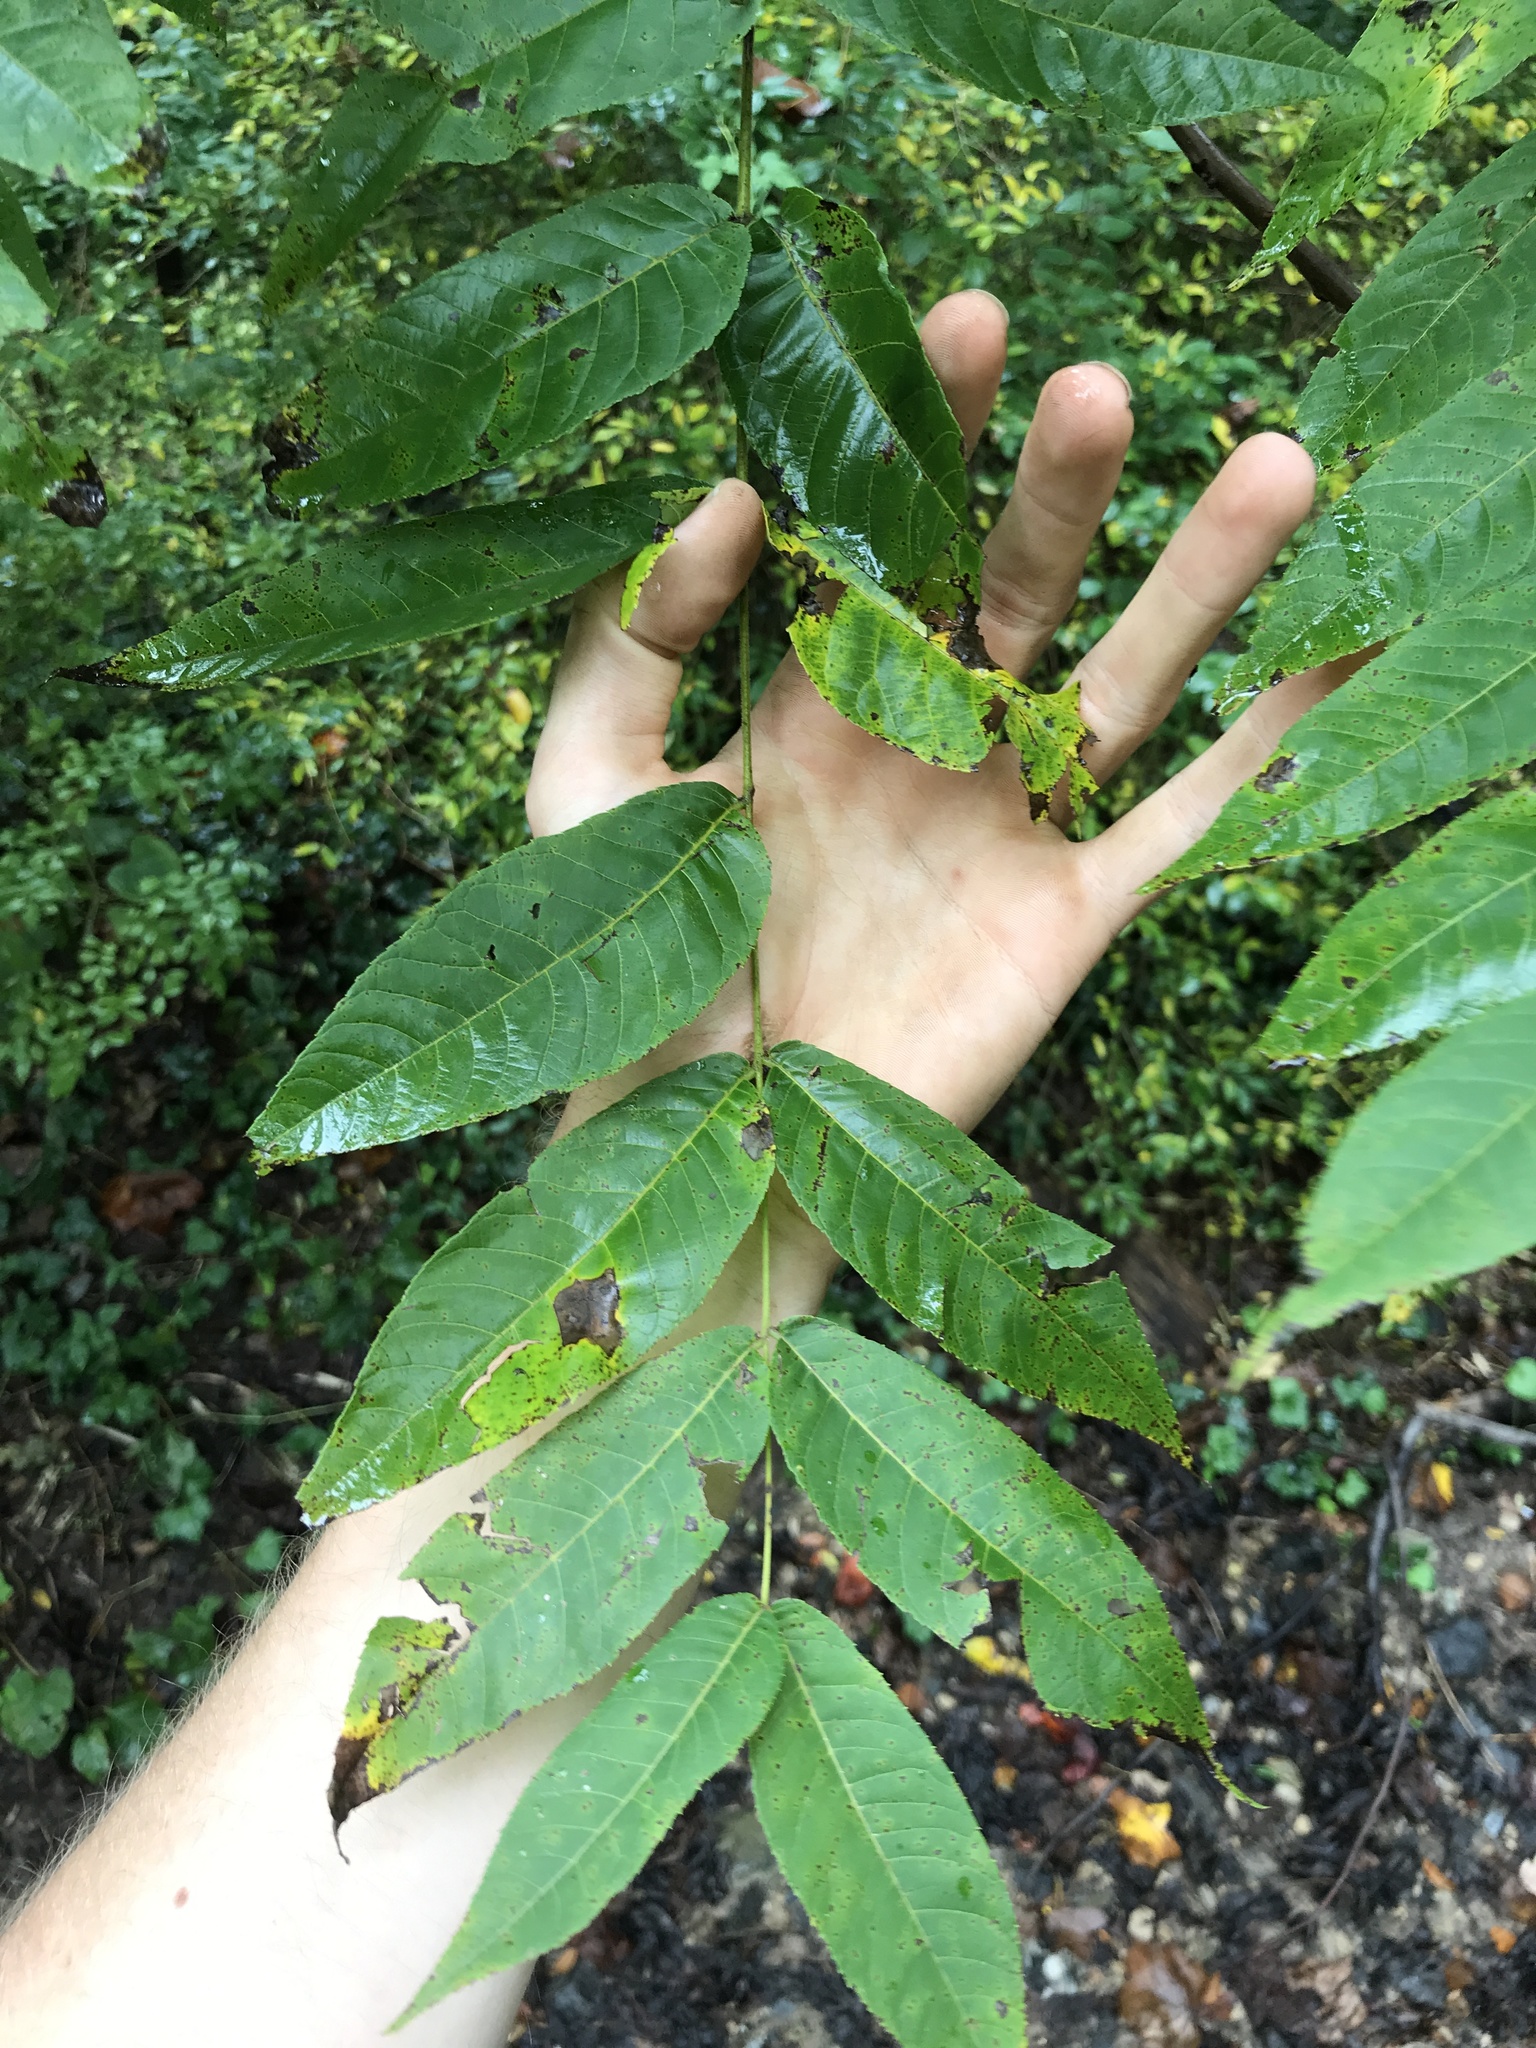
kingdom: Plantae
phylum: Tracheophyta
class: Magnoliopsida
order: Fagales
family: Juglandaceae
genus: Juglans
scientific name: Juglans nigra
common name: Black walnut
